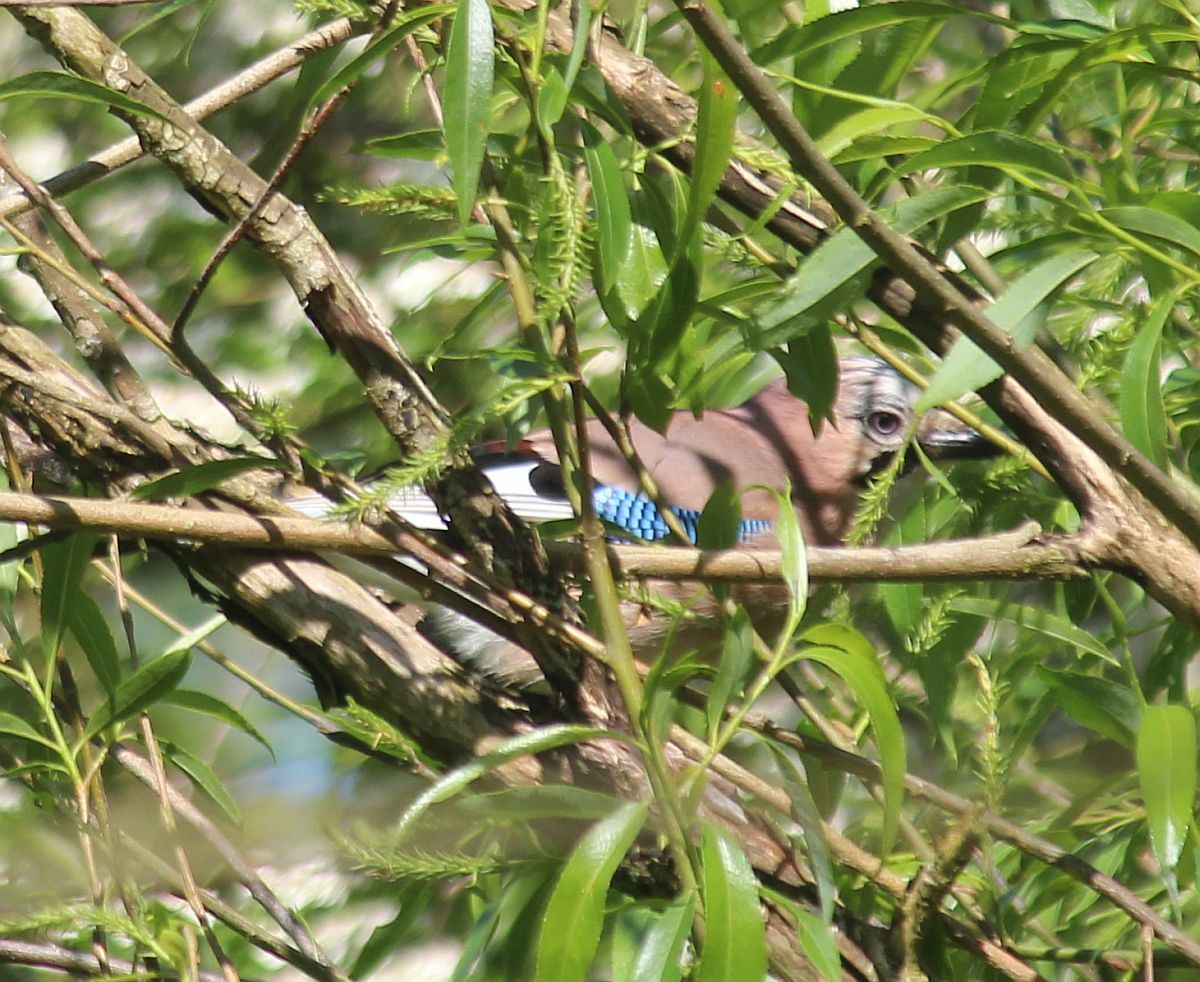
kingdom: Animalia
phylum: Chordata
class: Aves
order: Passeriformes
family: Corvidae
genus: Garrulus
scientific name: Garrulus glandarius
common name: Eurasian jay
